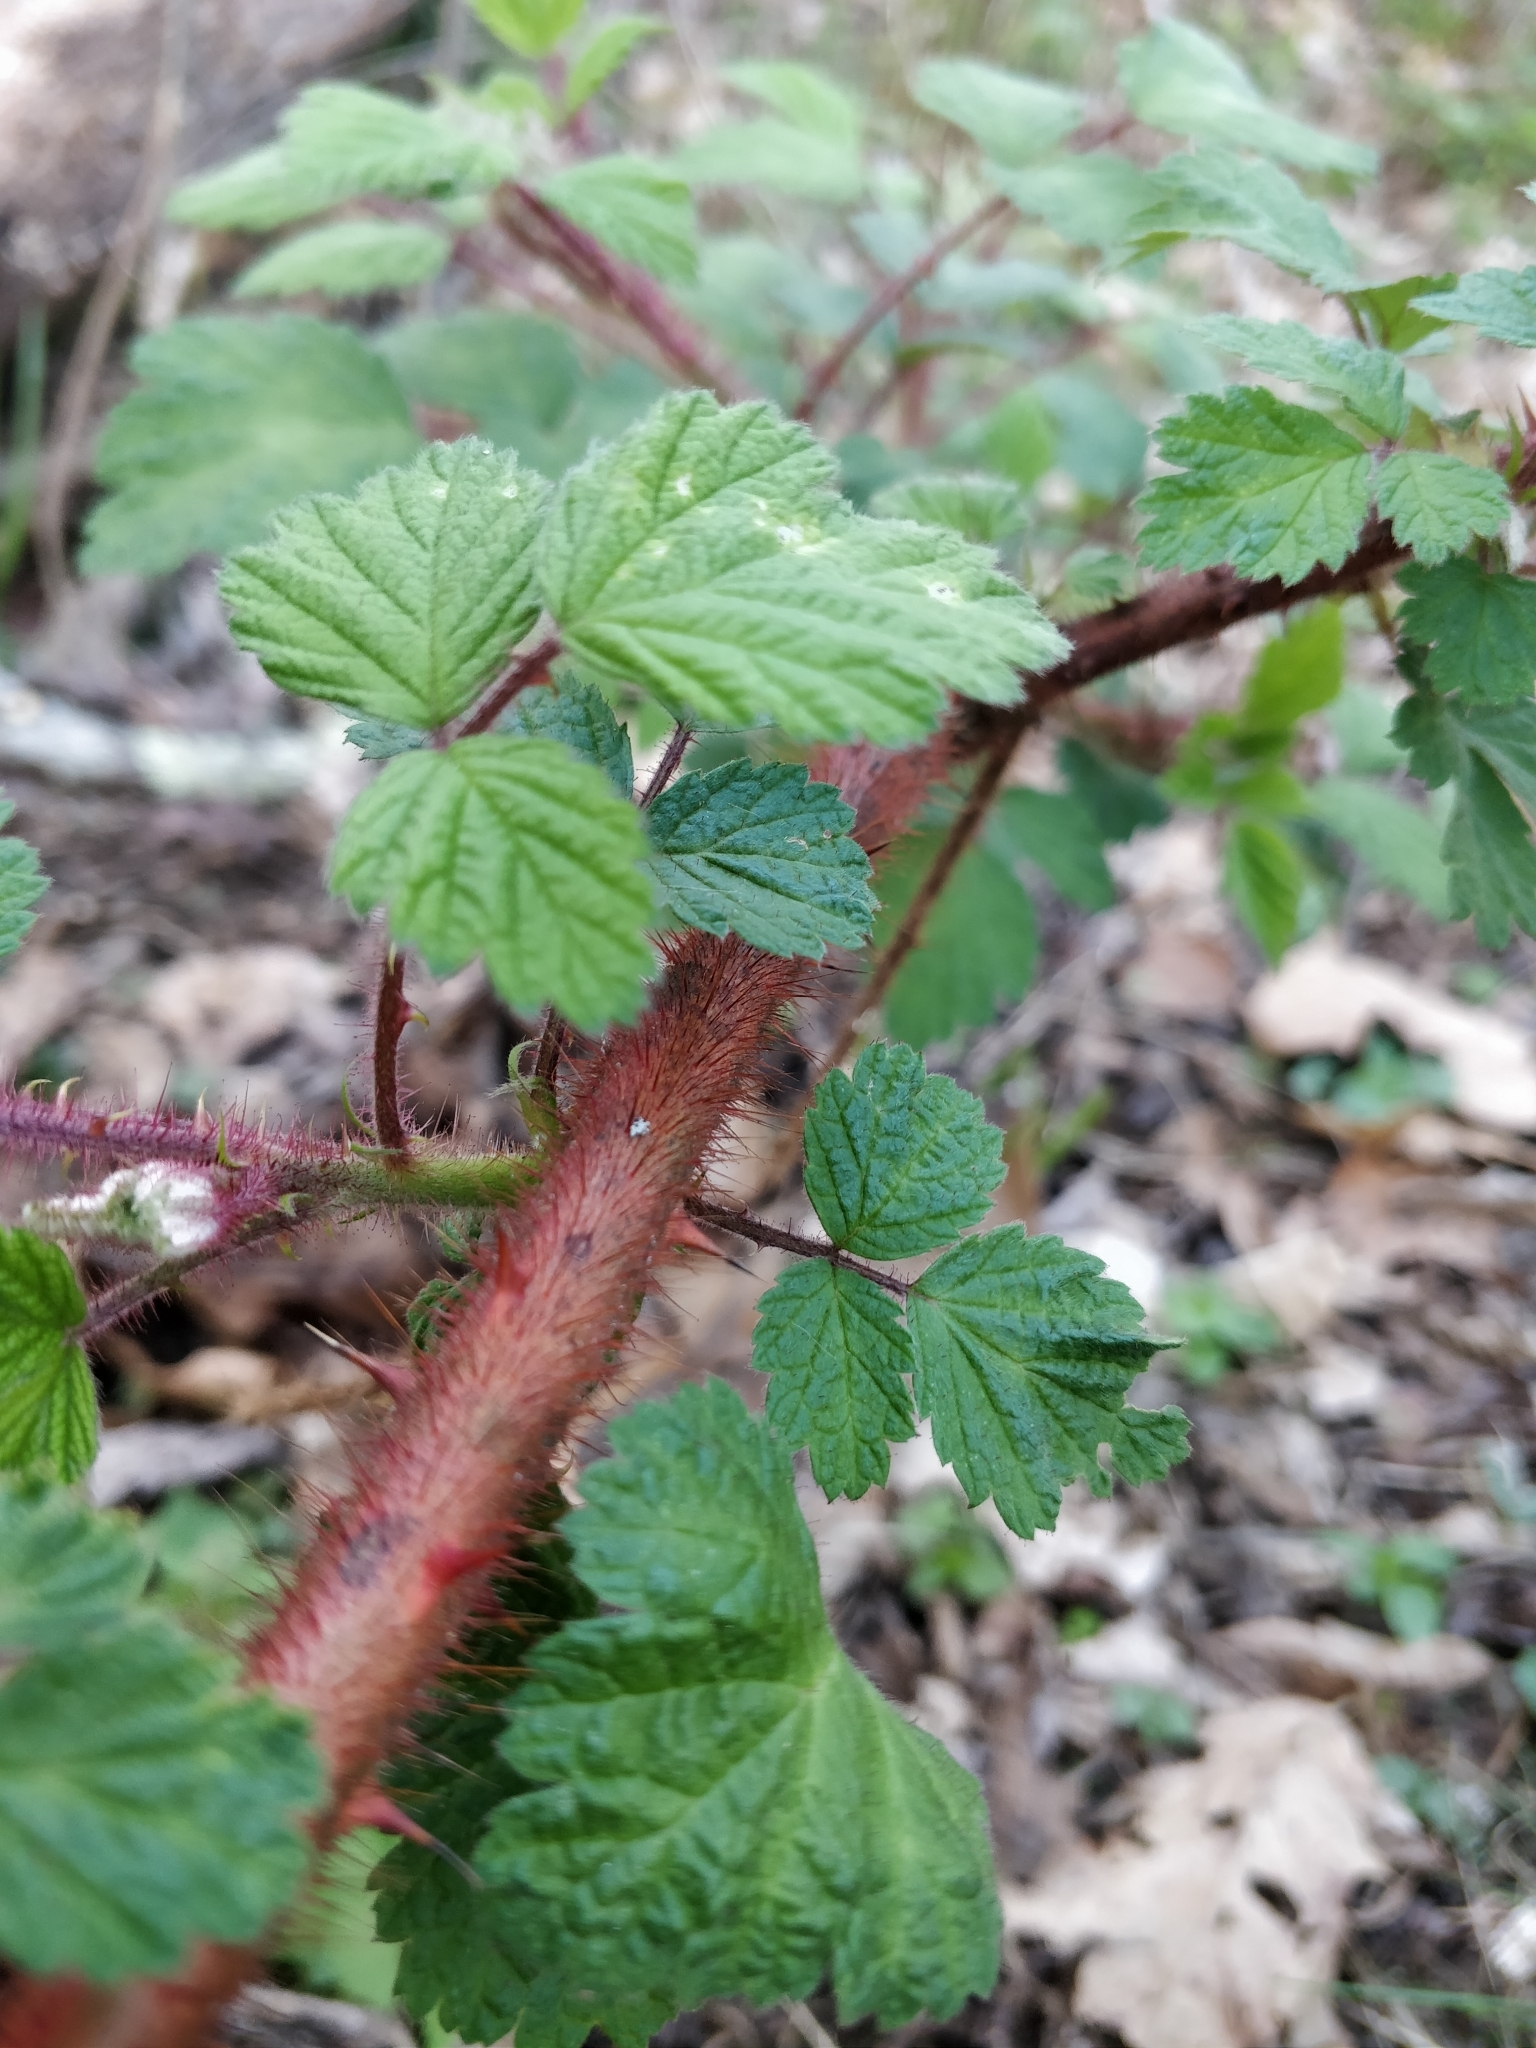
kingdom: Plantae
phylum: Tracheophyta
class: Magnoliopsida
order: Rosales
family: Rosaceae
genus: Rubus
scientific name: Rubus phoenicolasius
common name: Japanese wineberry
